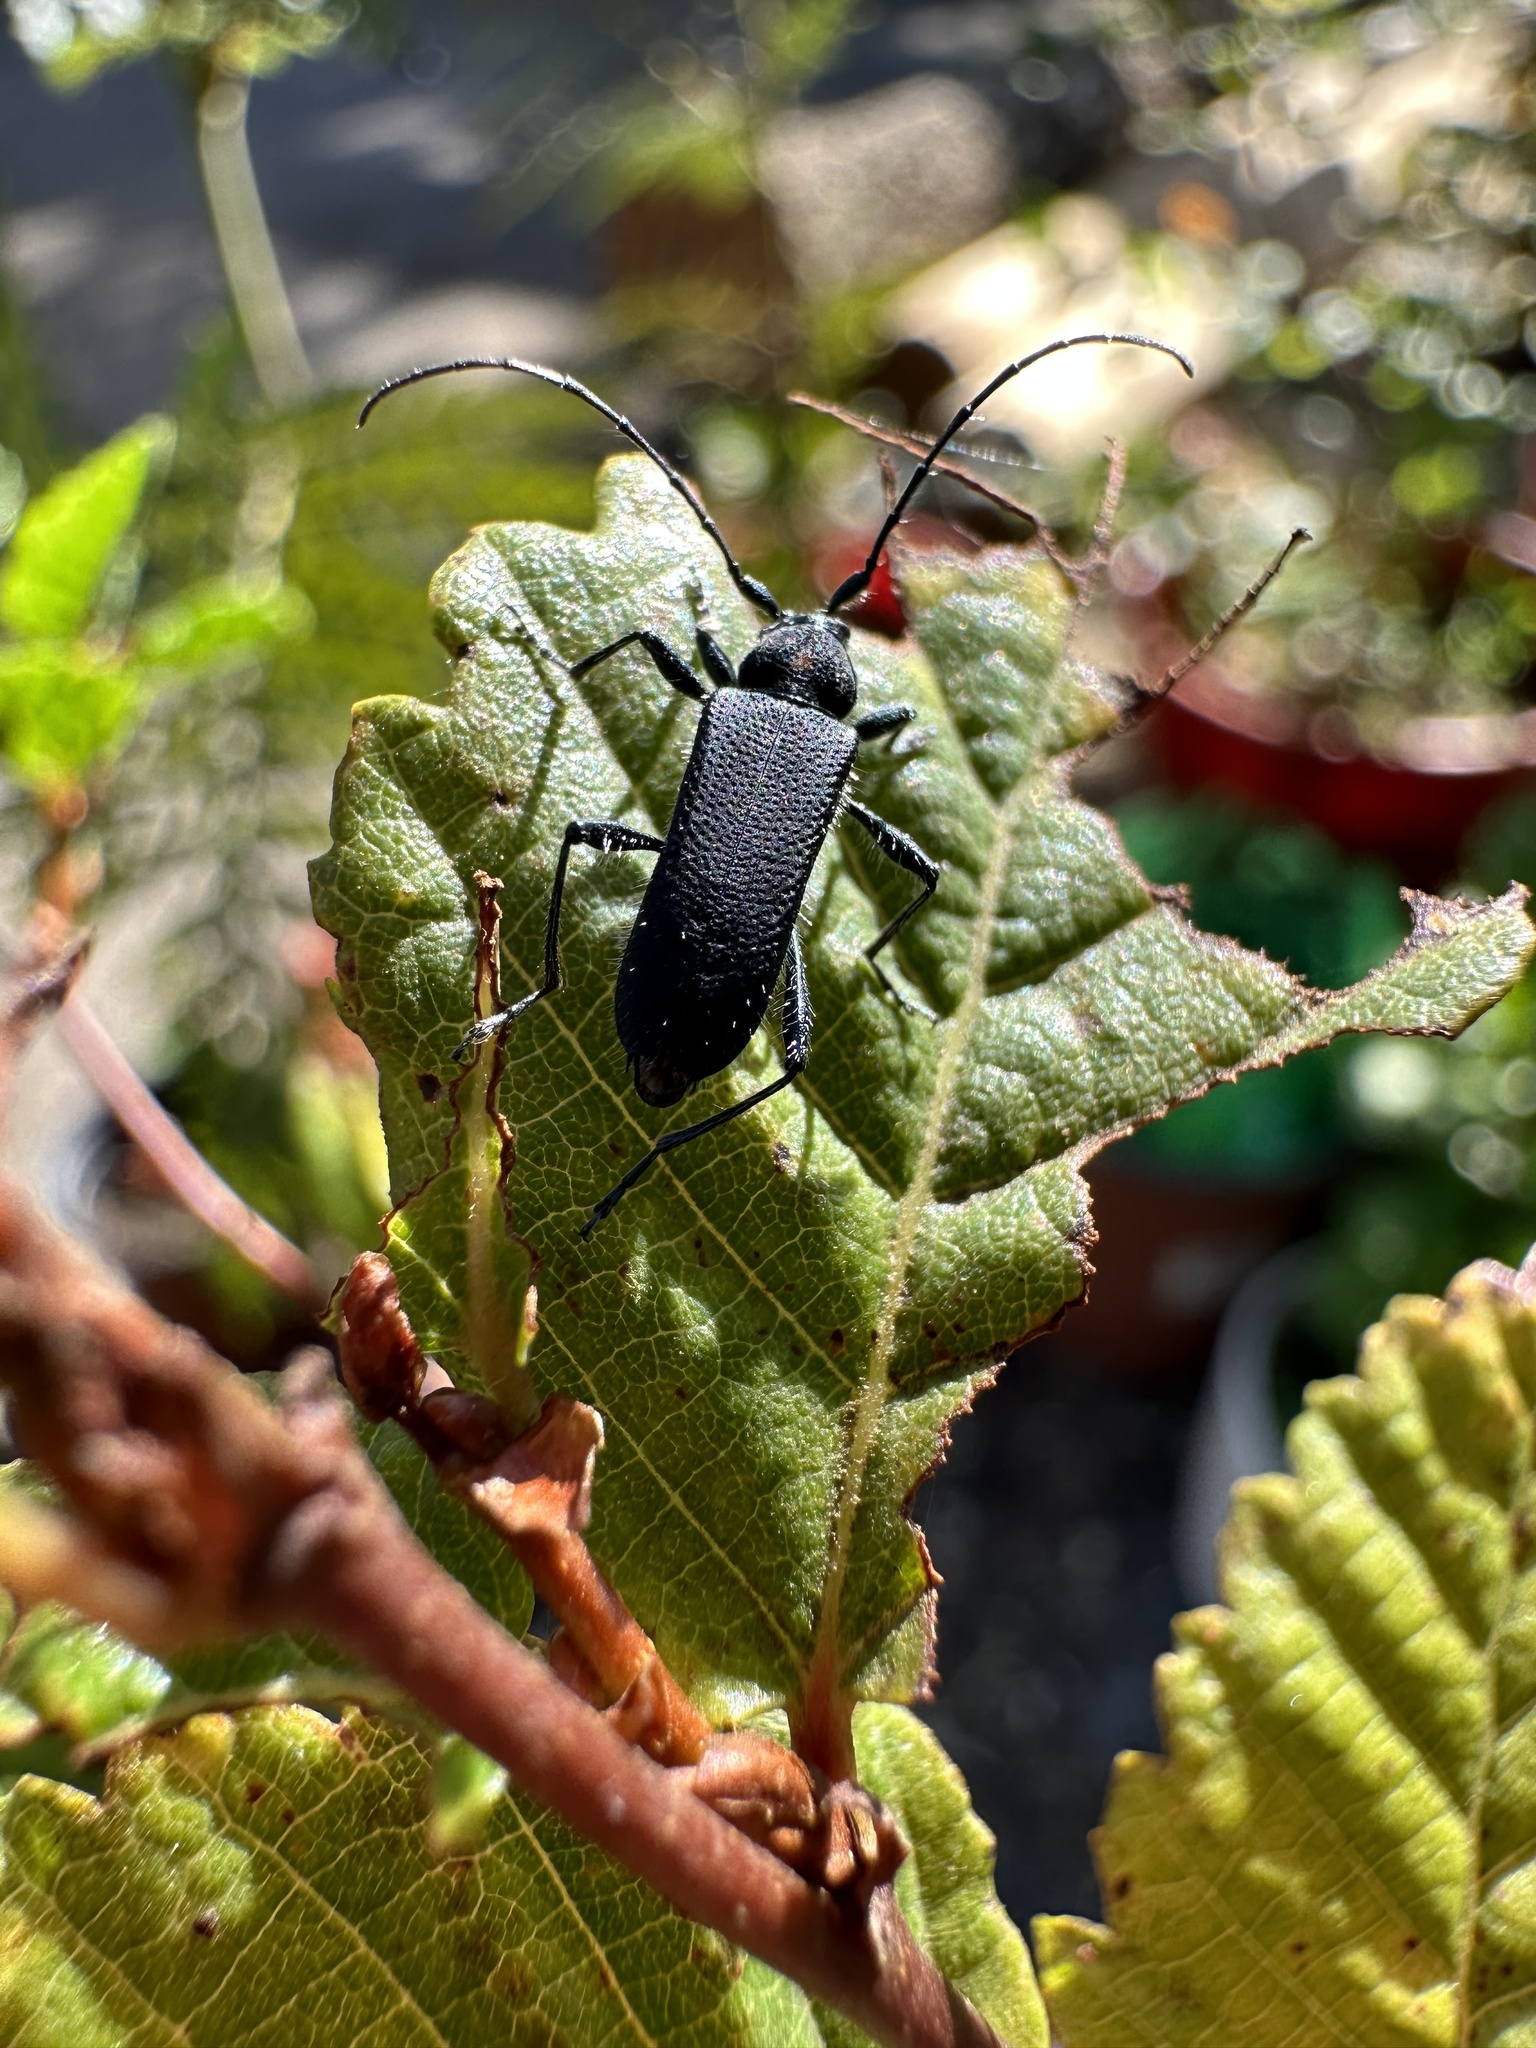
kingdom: Animalia
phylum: Arthropoda
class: Insecta
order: Coleoptera
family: Cerambycidae
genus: Eryphus
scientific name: Eryphus laetus
